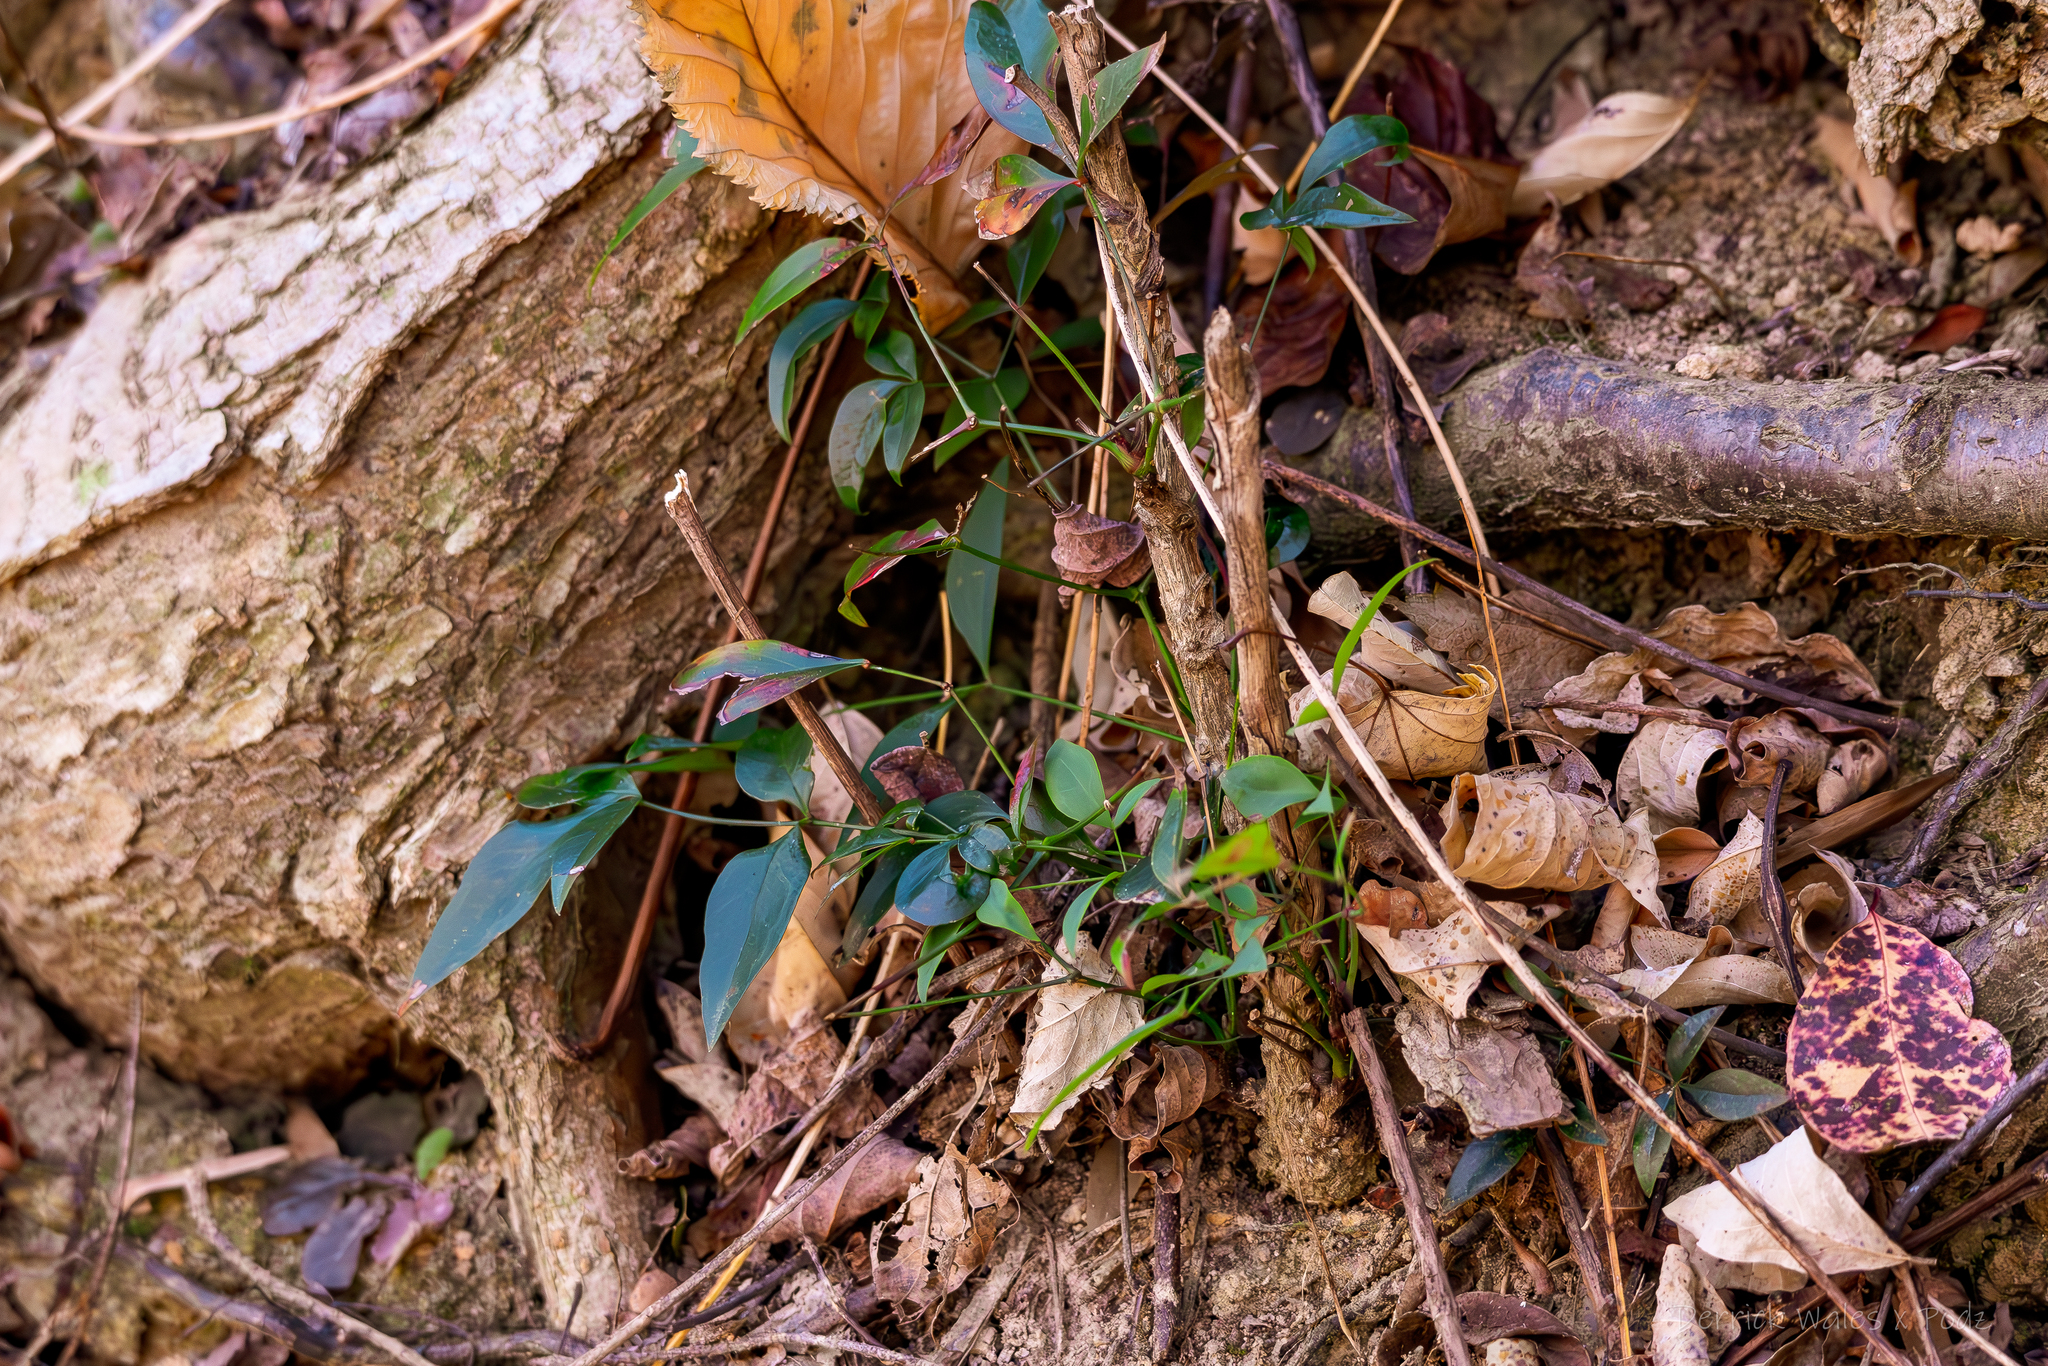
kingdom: Plantae
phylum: Tracheophyta
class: Magnoliopsida
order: Ranunculales
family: Berberidaceae
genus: Nandina
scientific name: Nandina domestica
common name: Sacred bamboo
